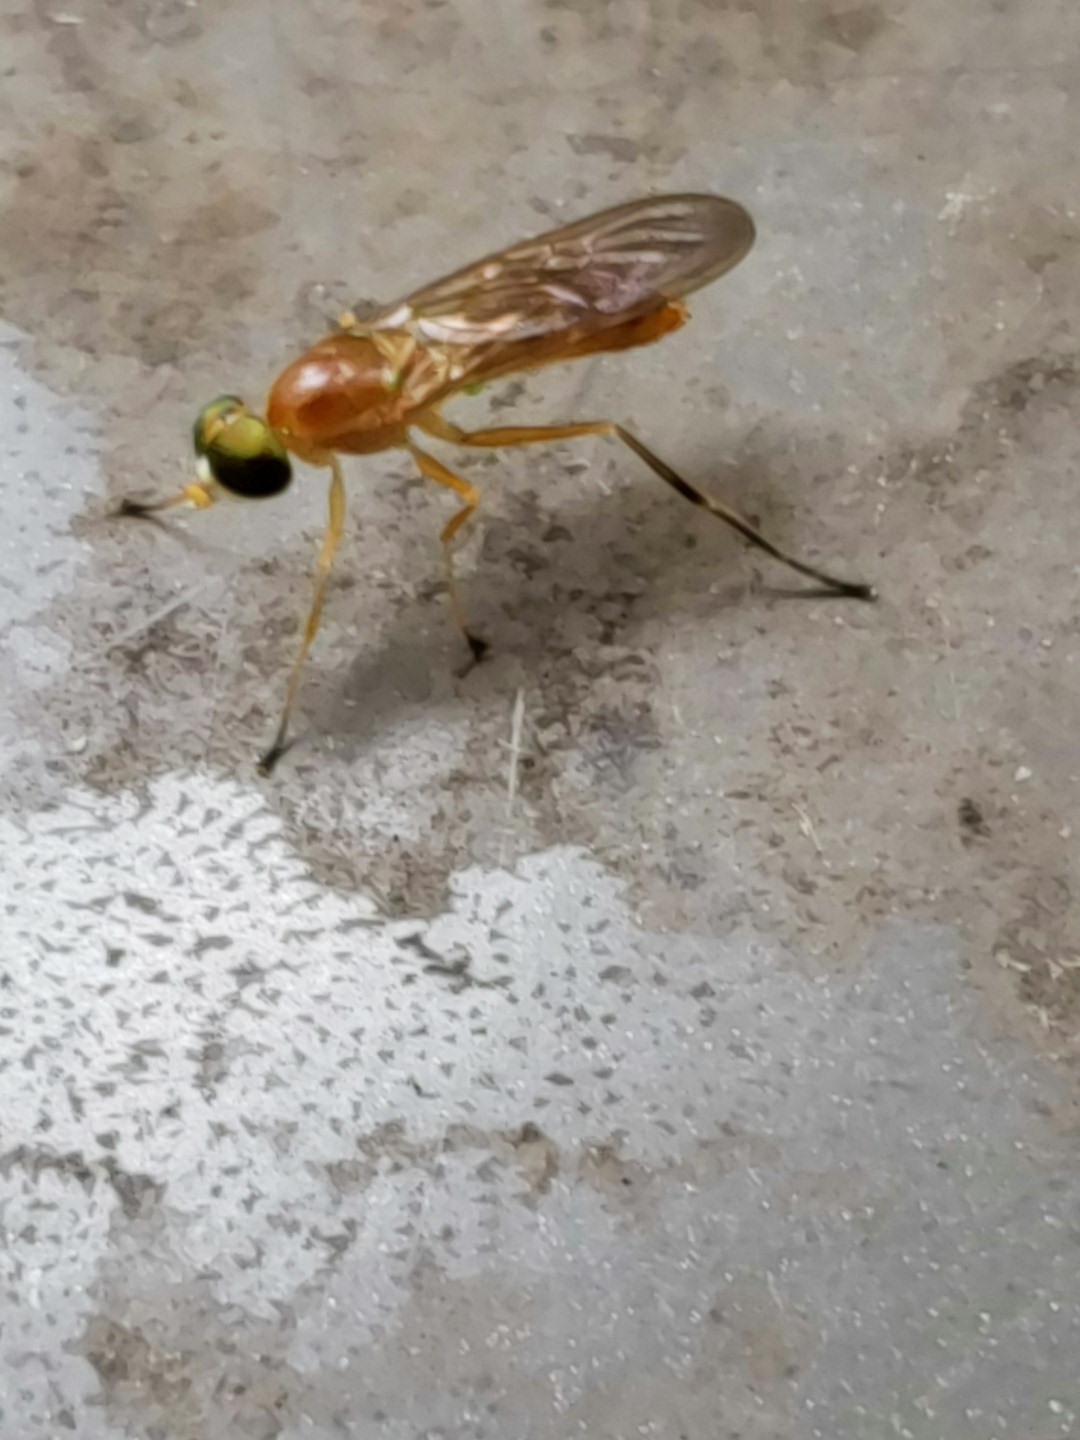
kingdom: Animalia
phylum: Arthropoda
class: Insecta
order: Diptera
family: Stratiomyidae
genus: Ptecticus
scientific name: Ptecticus trivittatus
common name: Compost fly
